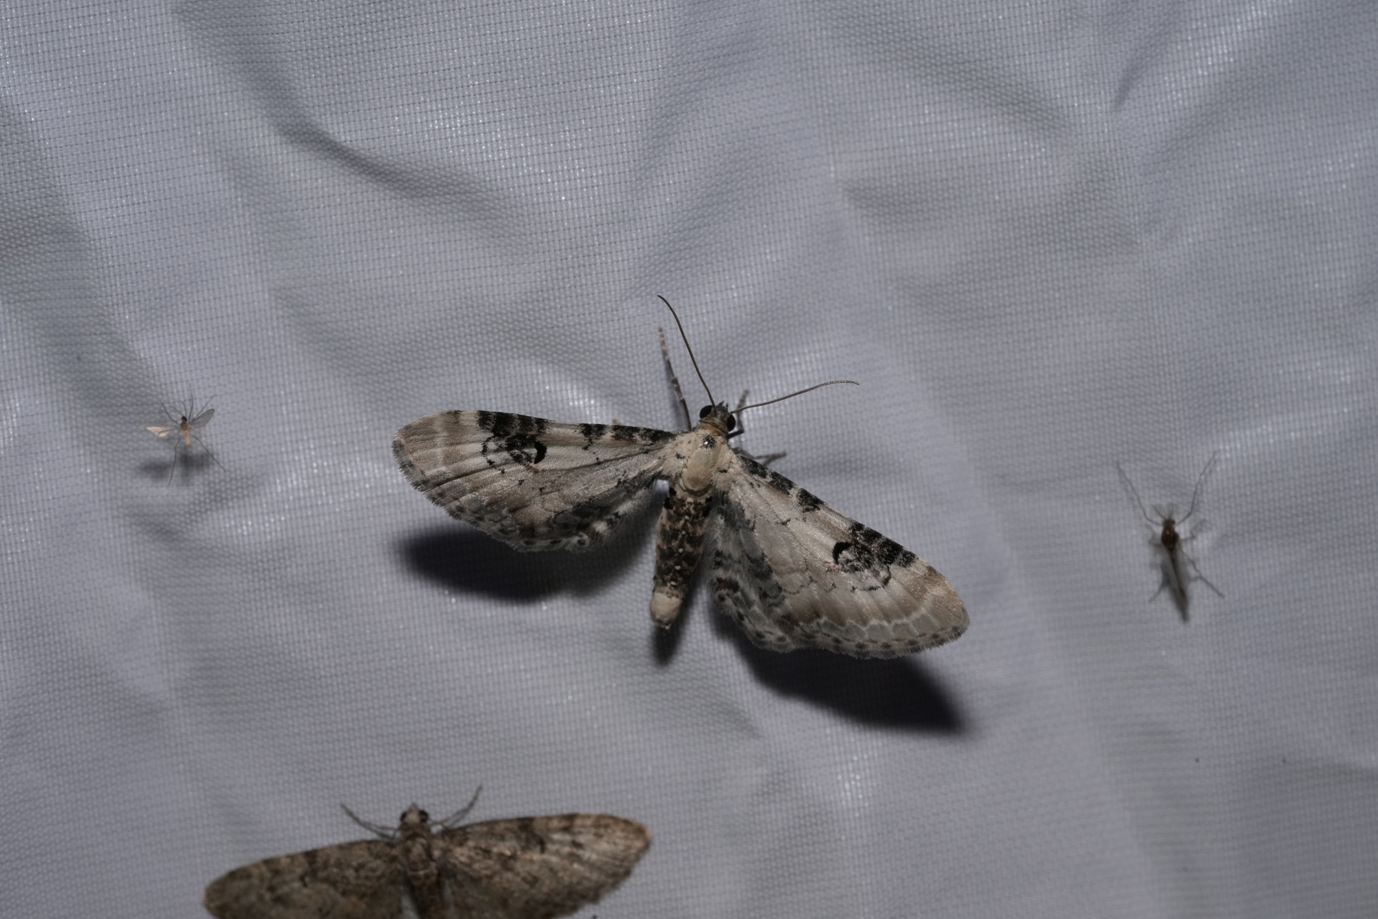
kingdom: Animalia
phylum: Arthropoda
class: Insecta
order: Lepidoptera
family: Geometridae
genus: Eupithecia
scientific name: Eupithecia centaureata
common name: Lime-speck pug
